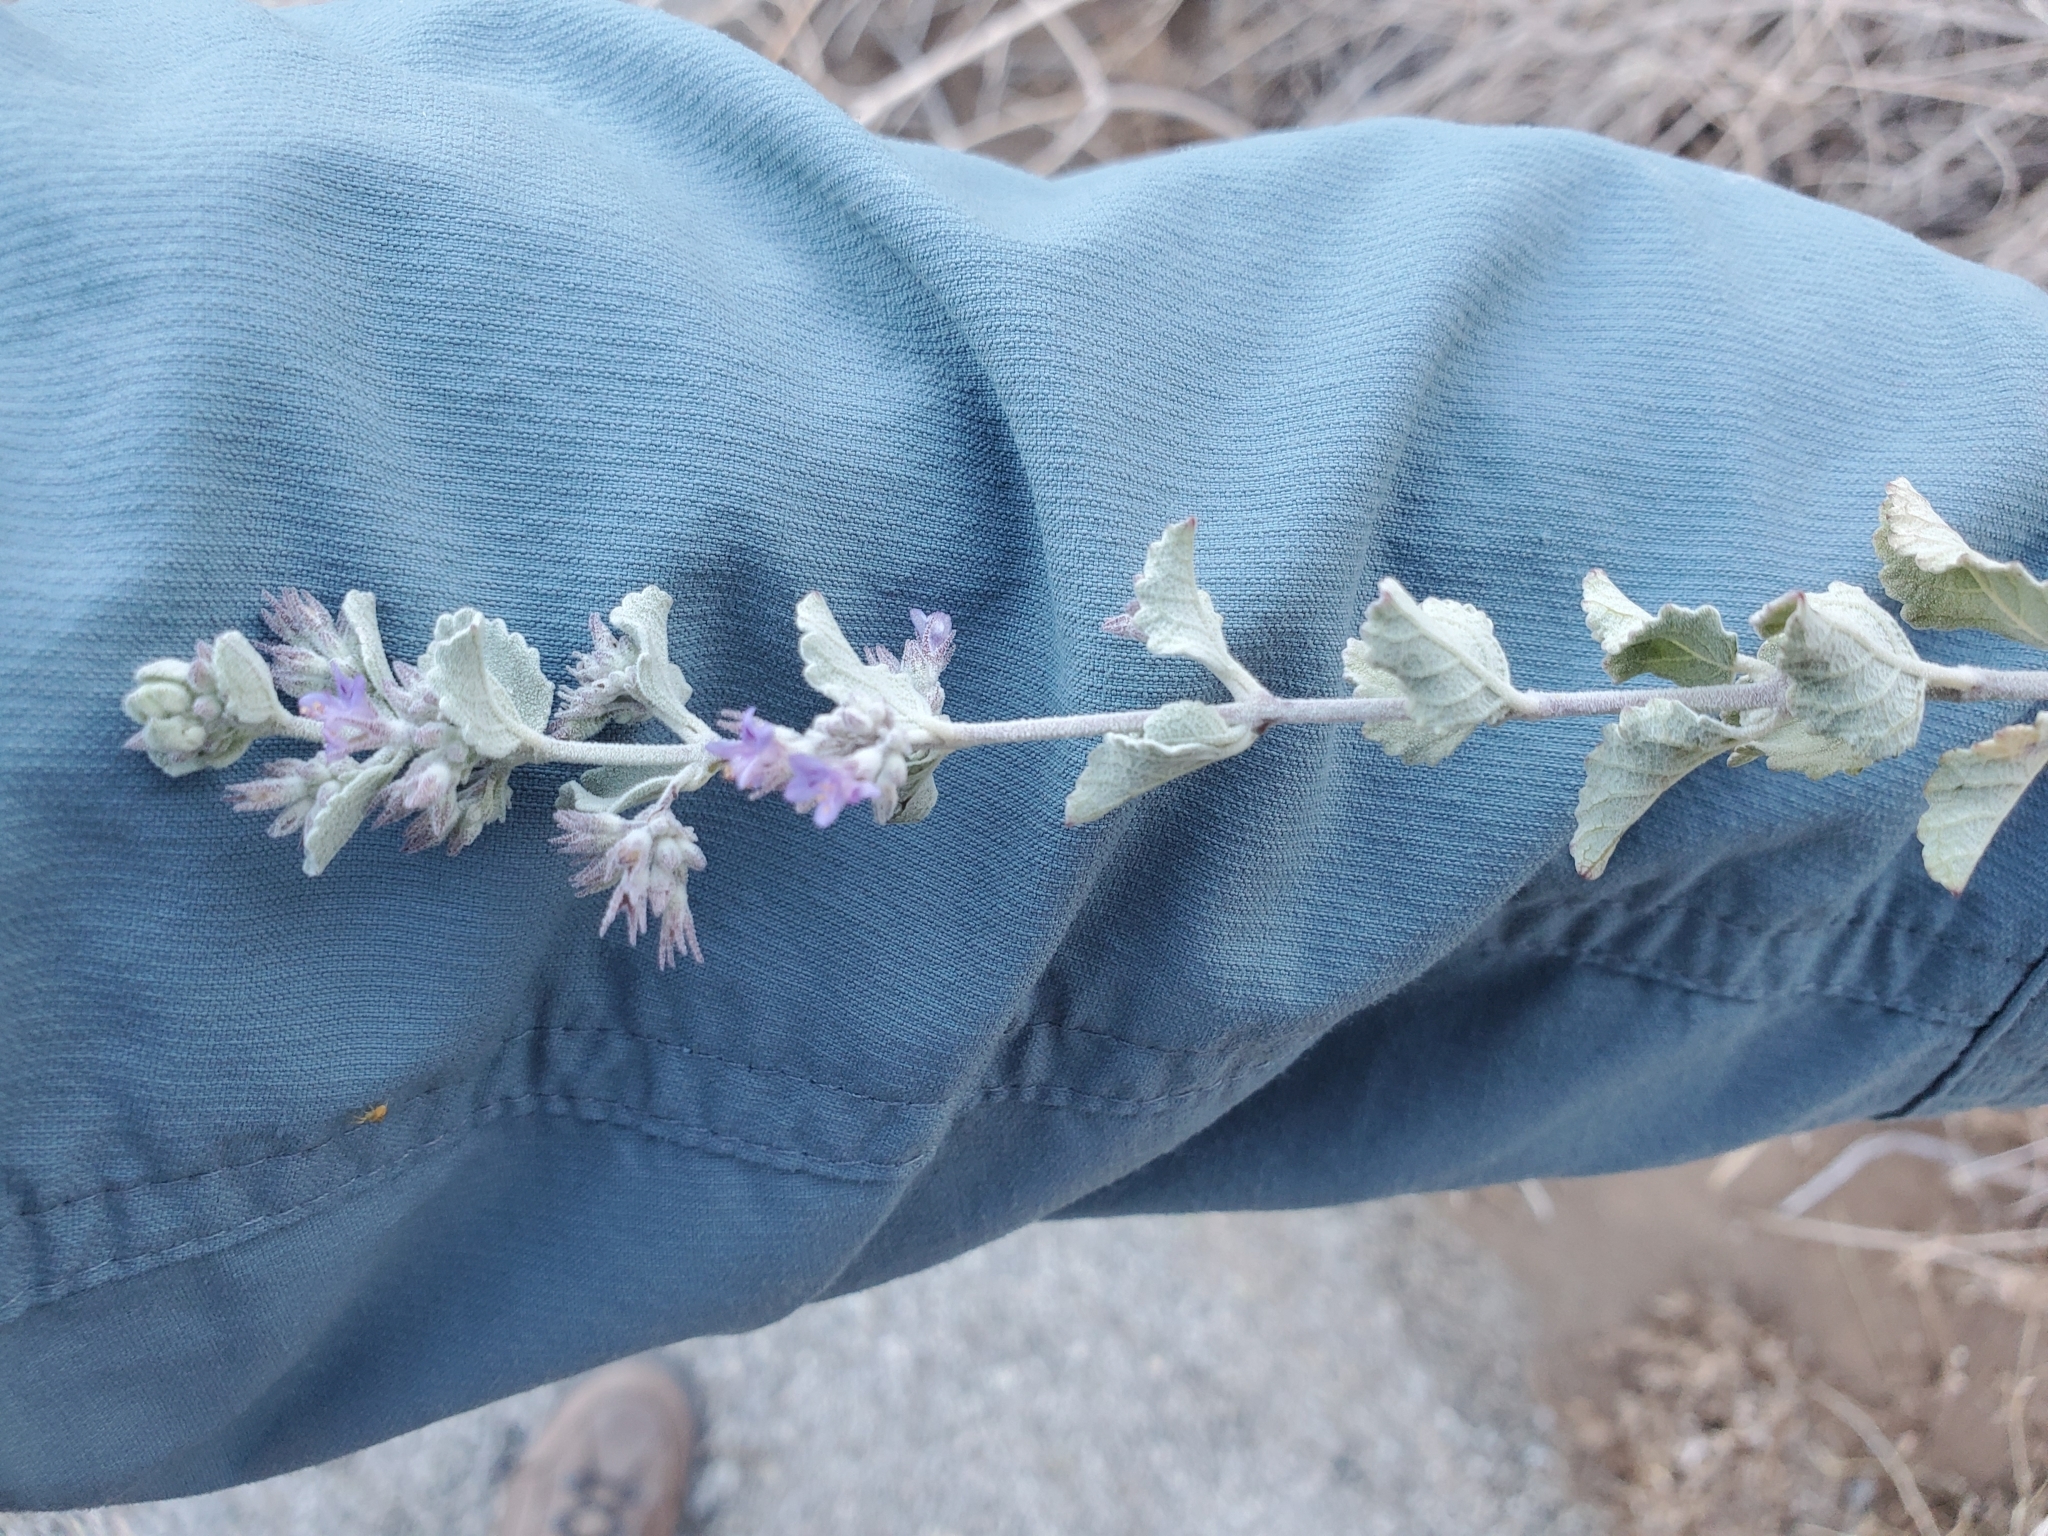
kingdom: Plantae
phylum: Tracheophyta
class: Magnoliopsida
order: Lamiales
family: Lamiaceae
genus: Condea
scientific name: Condea emoryi
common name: Chia
